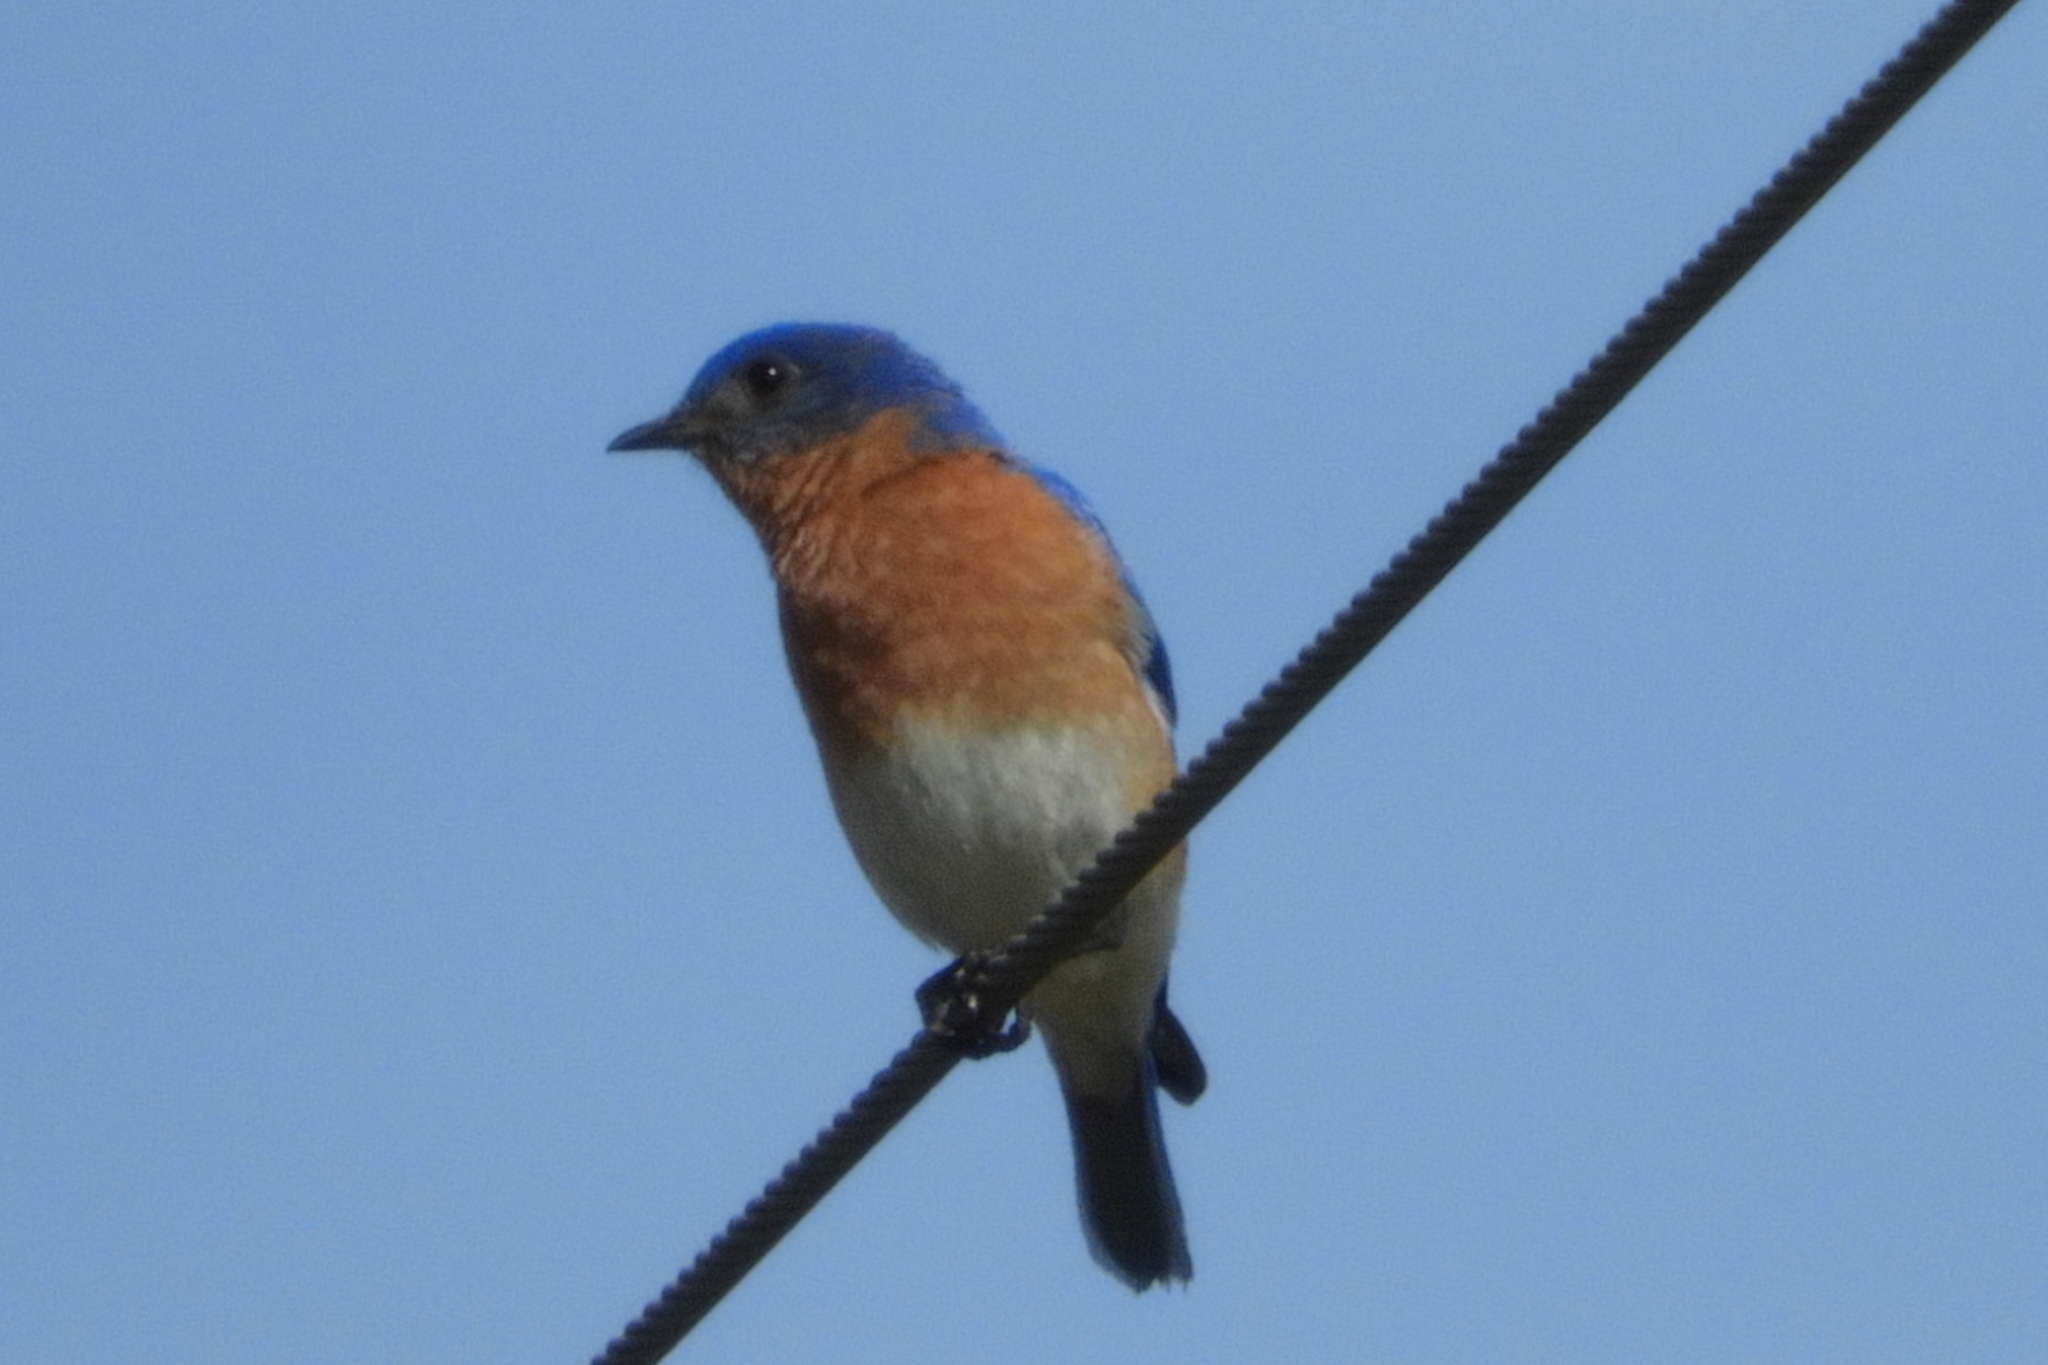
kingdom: Animalia
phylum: Chordata
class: Aves
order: Passeriformes
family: Turdidae
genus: Sialia
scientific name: Sialia sialis
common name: Eastern bluebird
